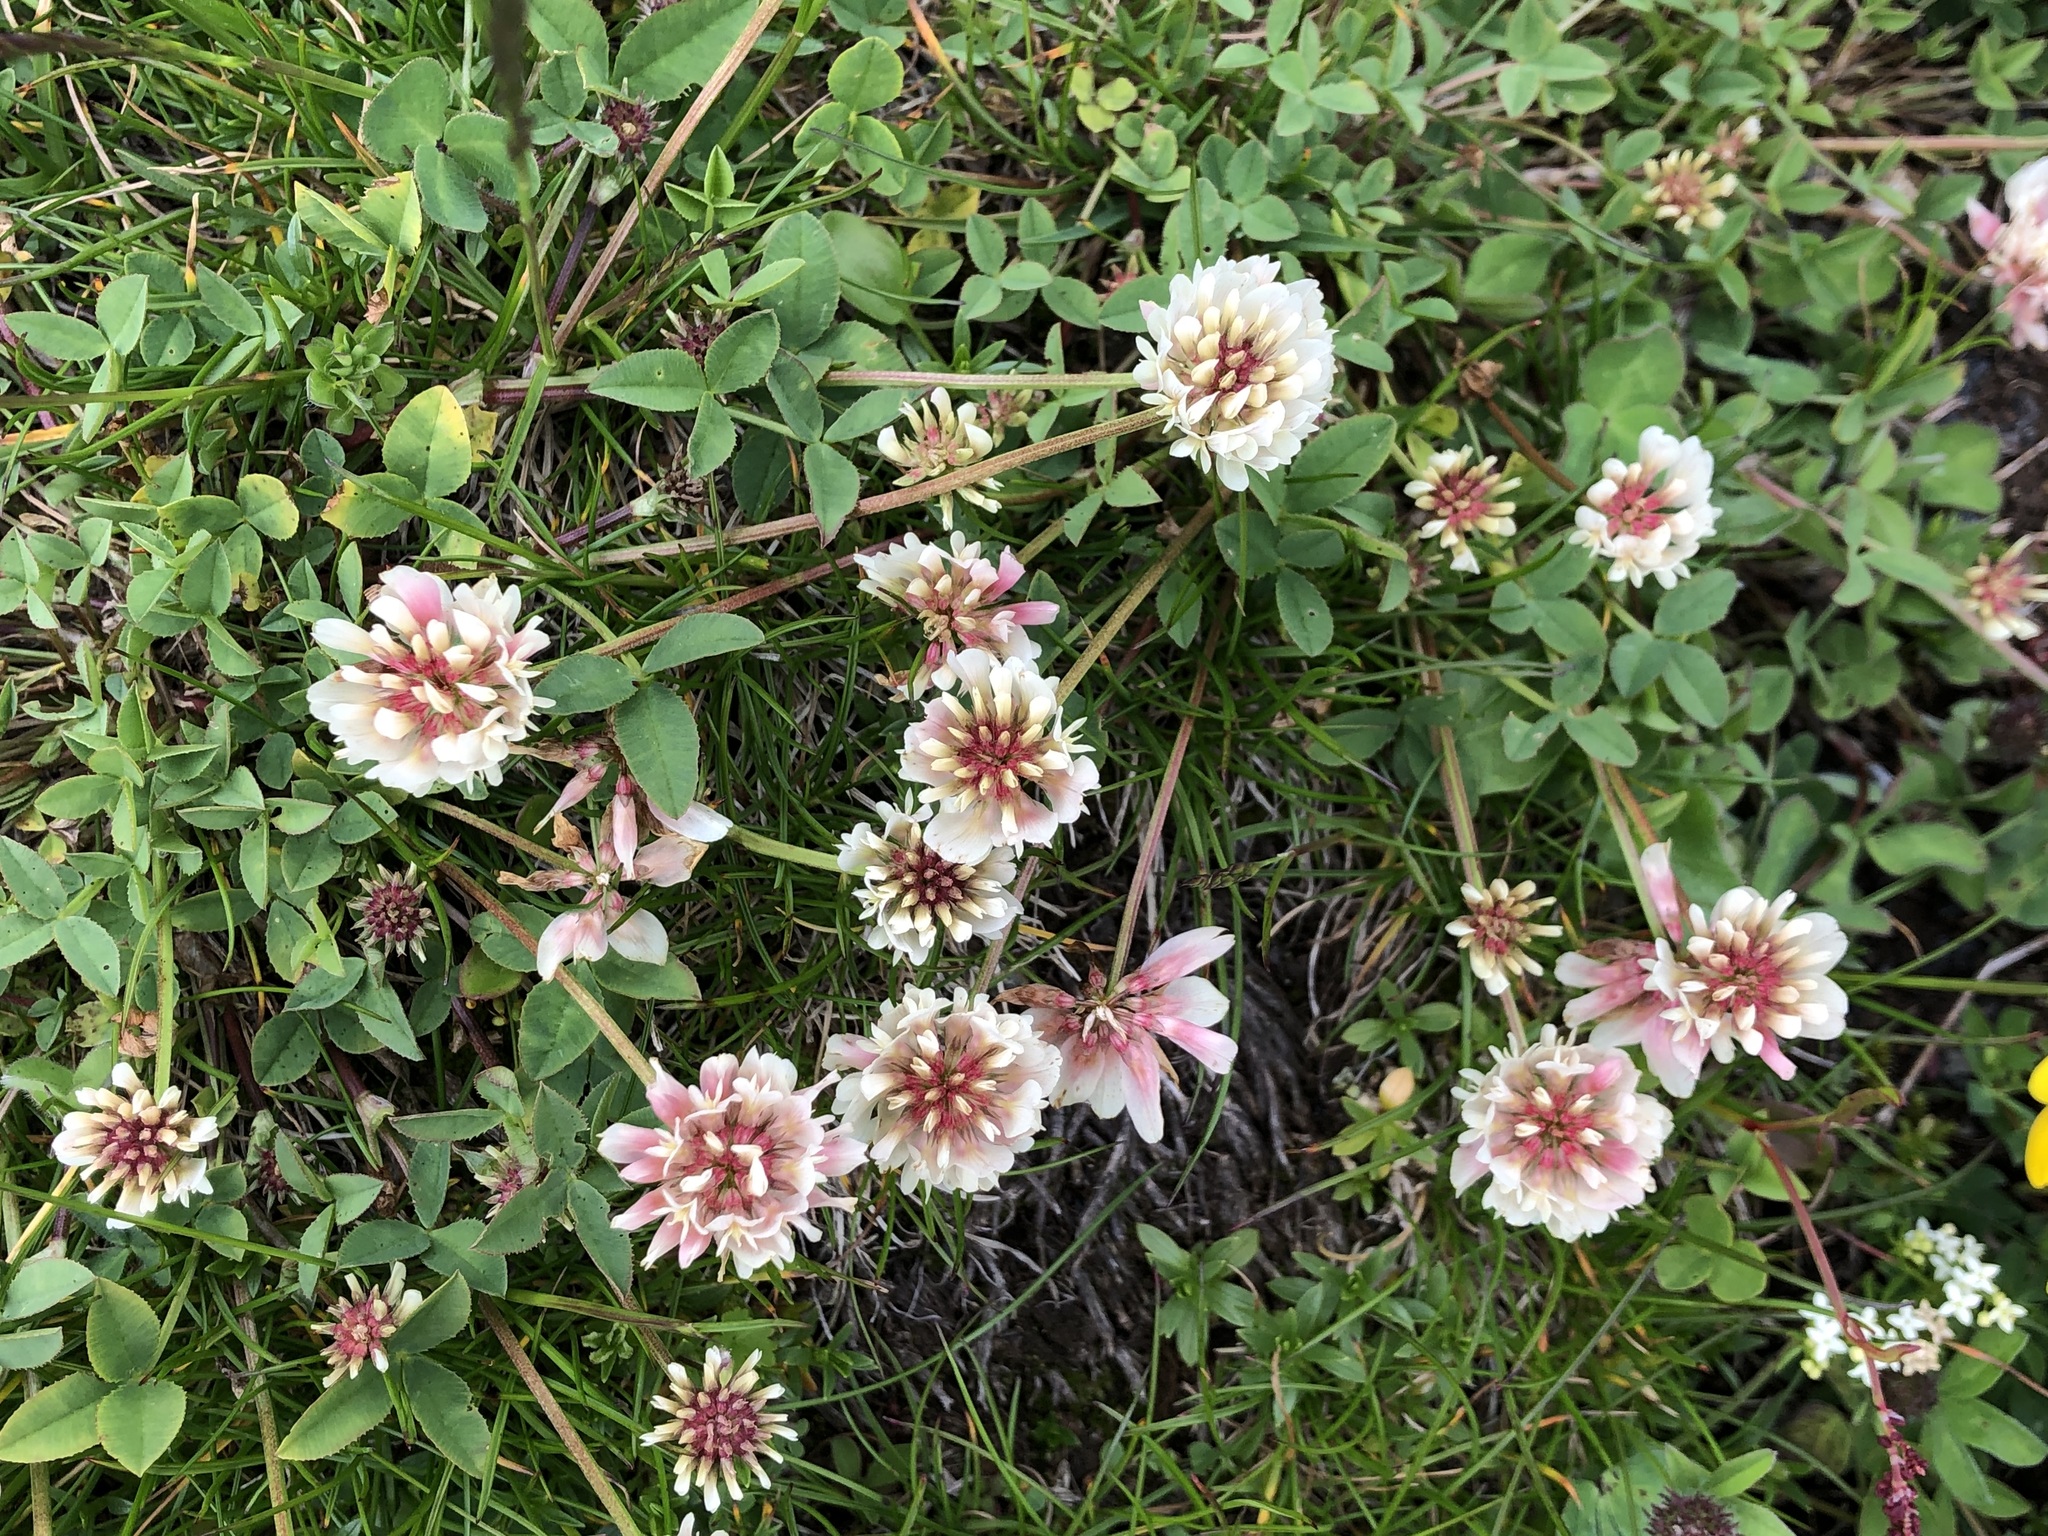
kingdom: Plantae
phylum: Tracheophyta
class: Magnoliopsida
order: Fabales
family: Fabaceae
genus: Trifolium
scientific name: Trifolium pallescens
